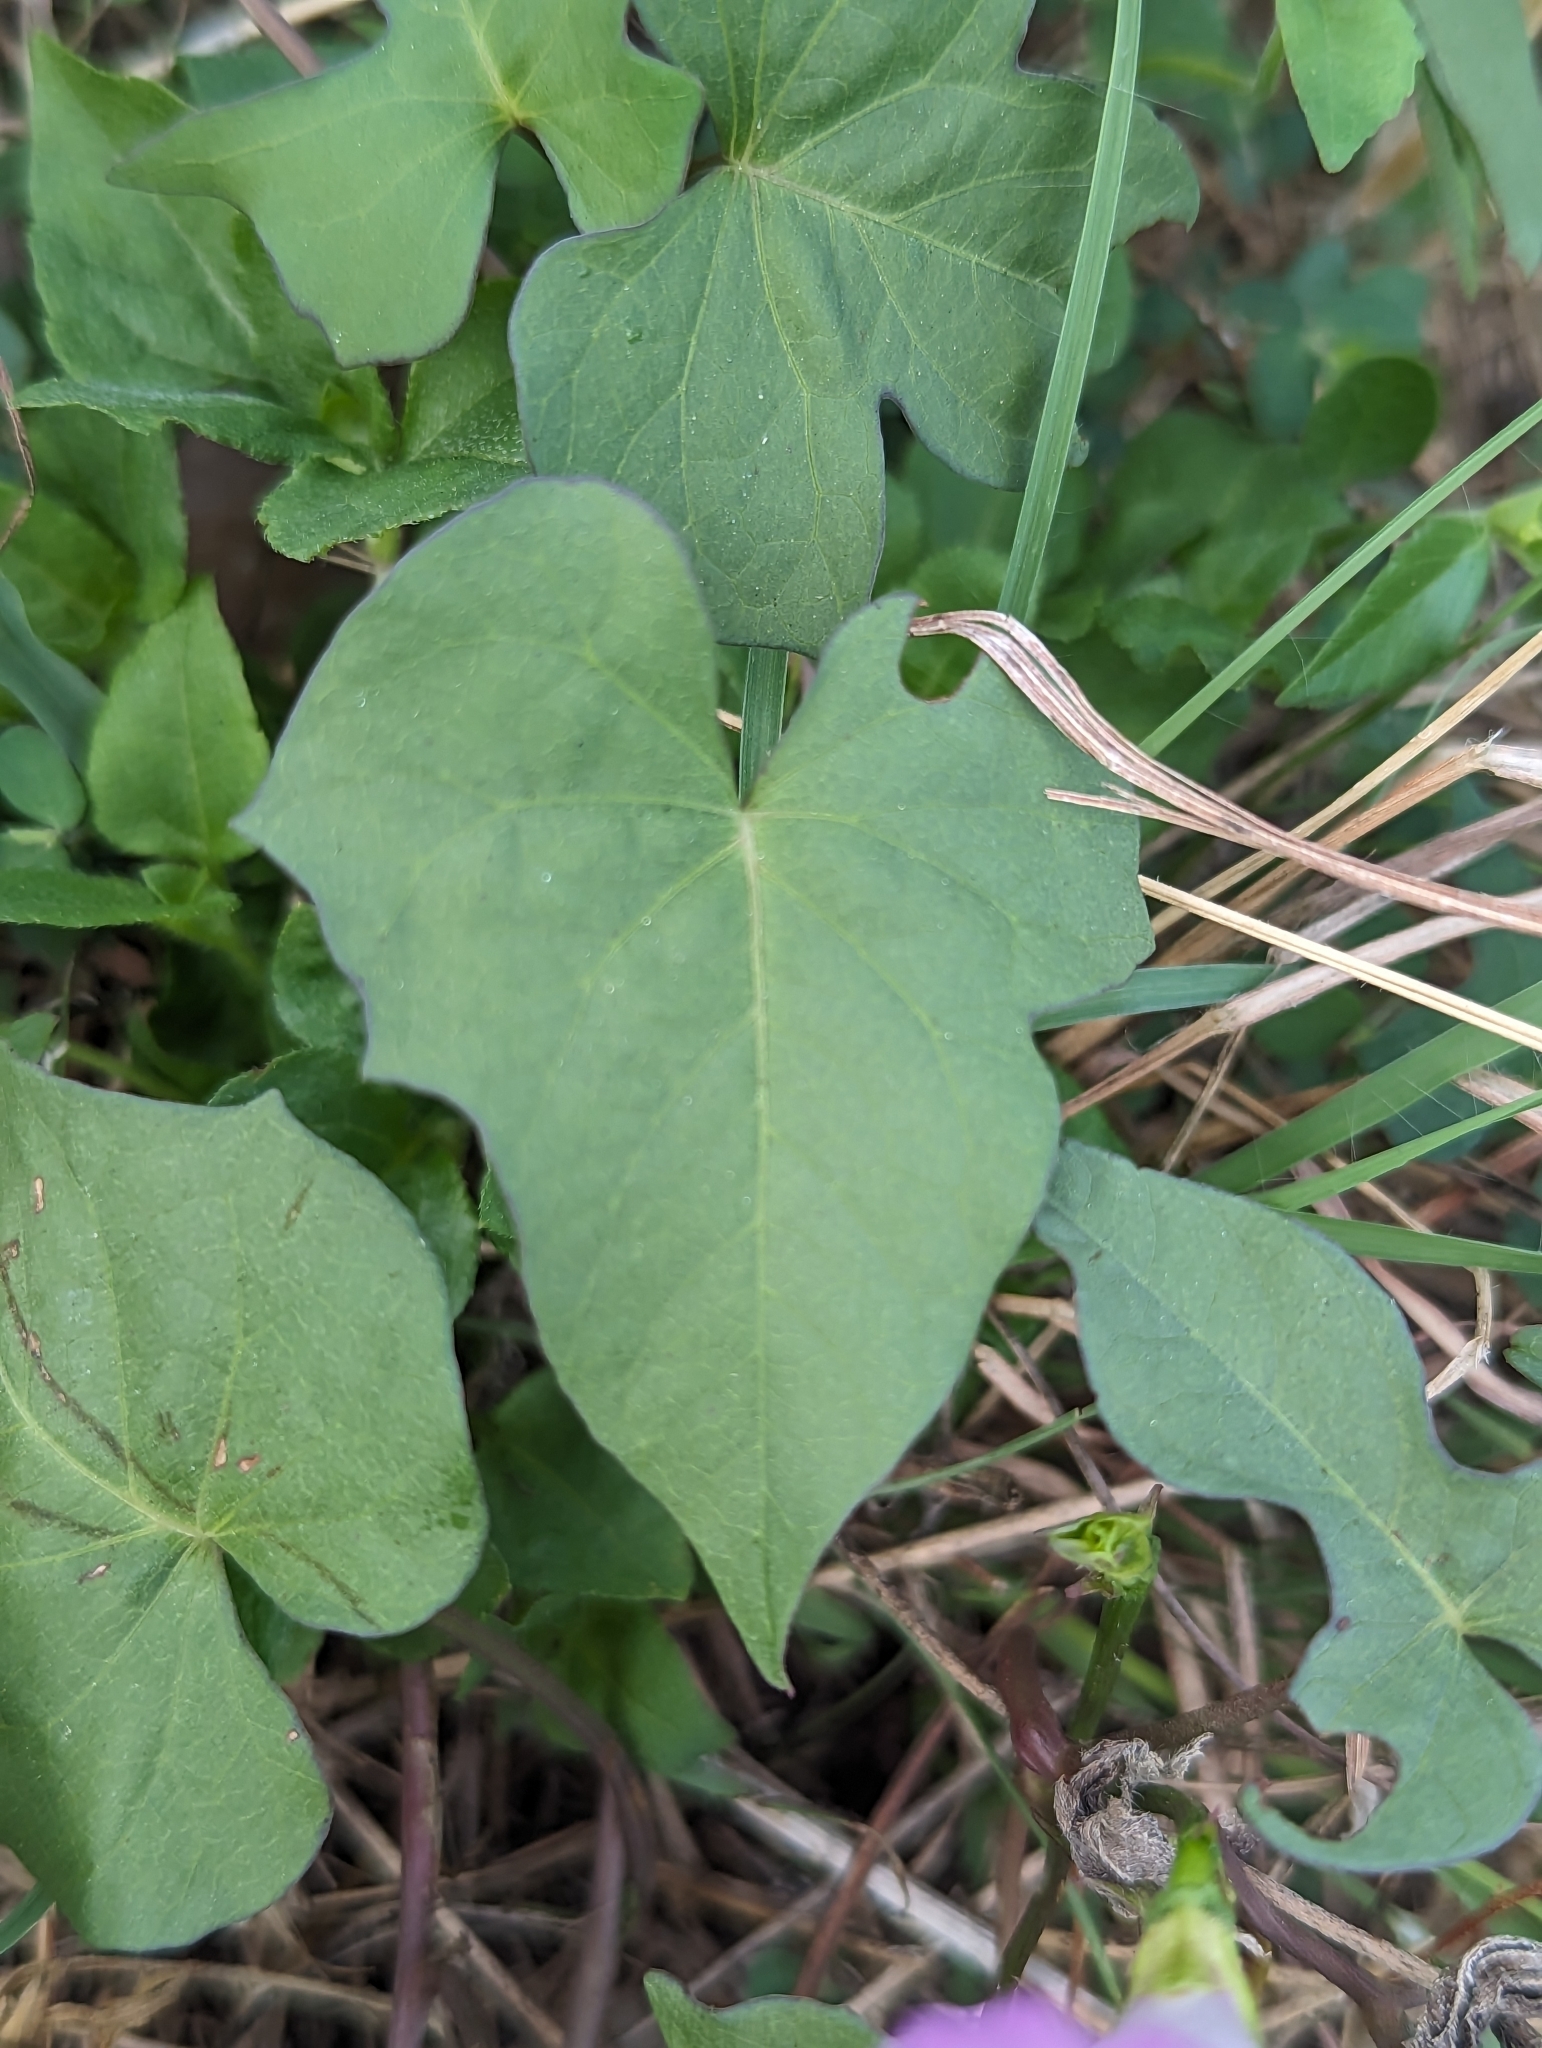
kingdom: Plantae
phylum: Tracheophyta
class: Magnoliopsida
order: Solanales
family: Convolvulaceae
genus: Ipomoea
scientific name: Ipomoea cordatotriloba
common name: Cotton morning glory
